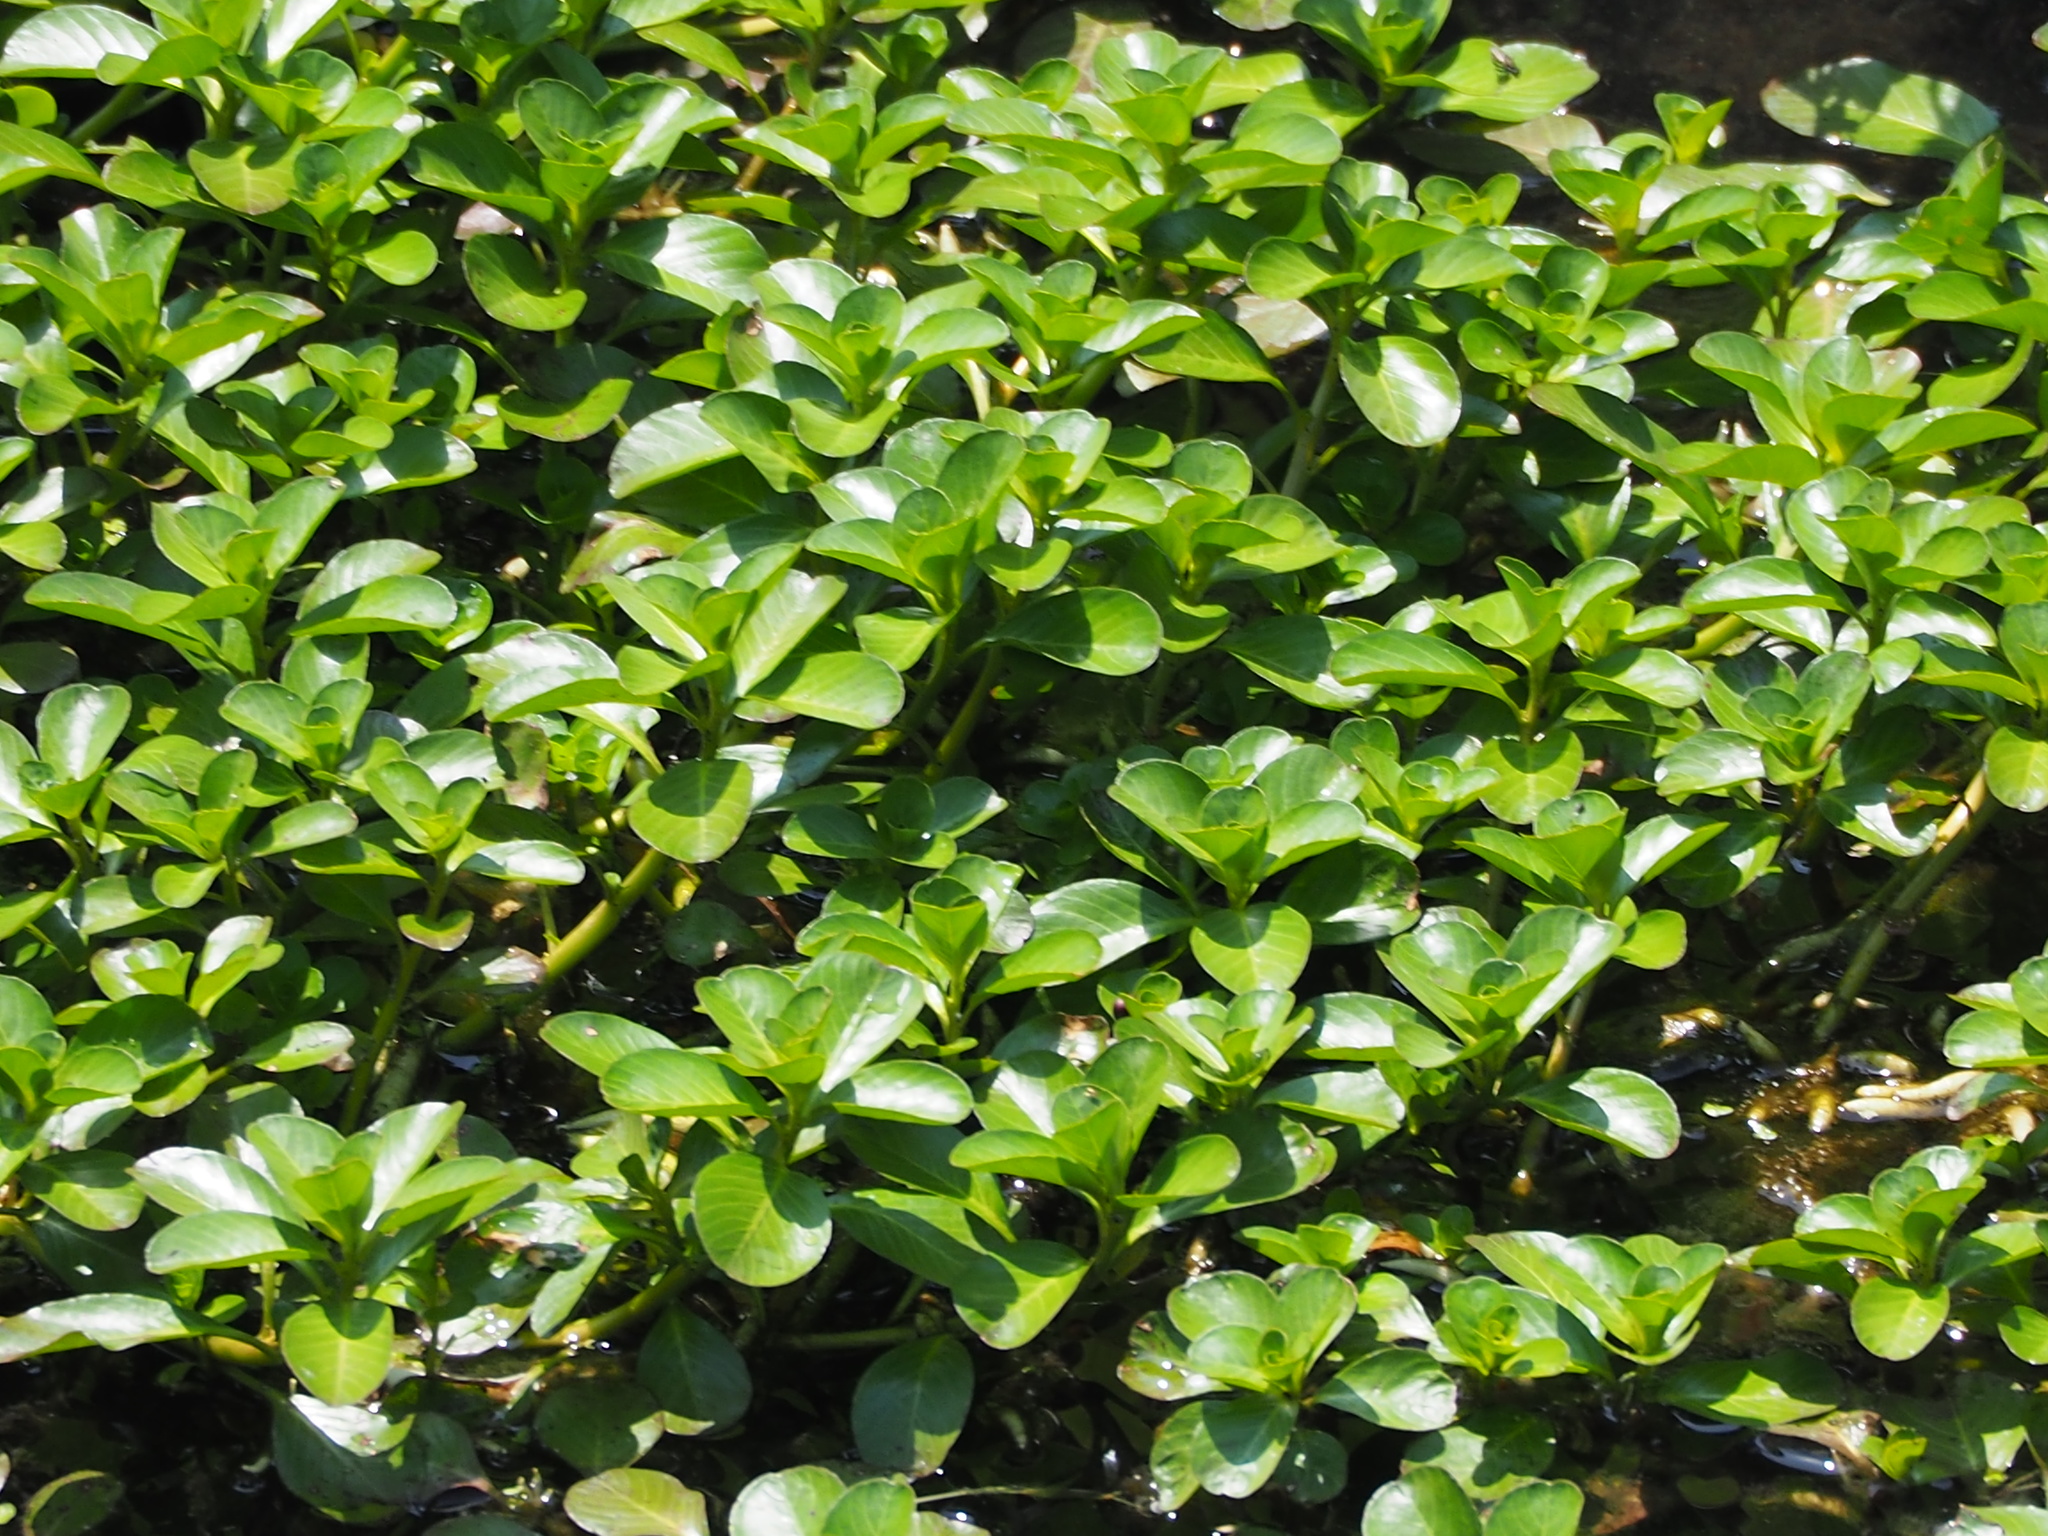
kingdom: Plantae
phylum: Tracheophyta
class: Magnoliopsida
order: Myrtales
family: Onagraceae
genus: Ludwigia
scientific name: Ludwigia taiwanensis
